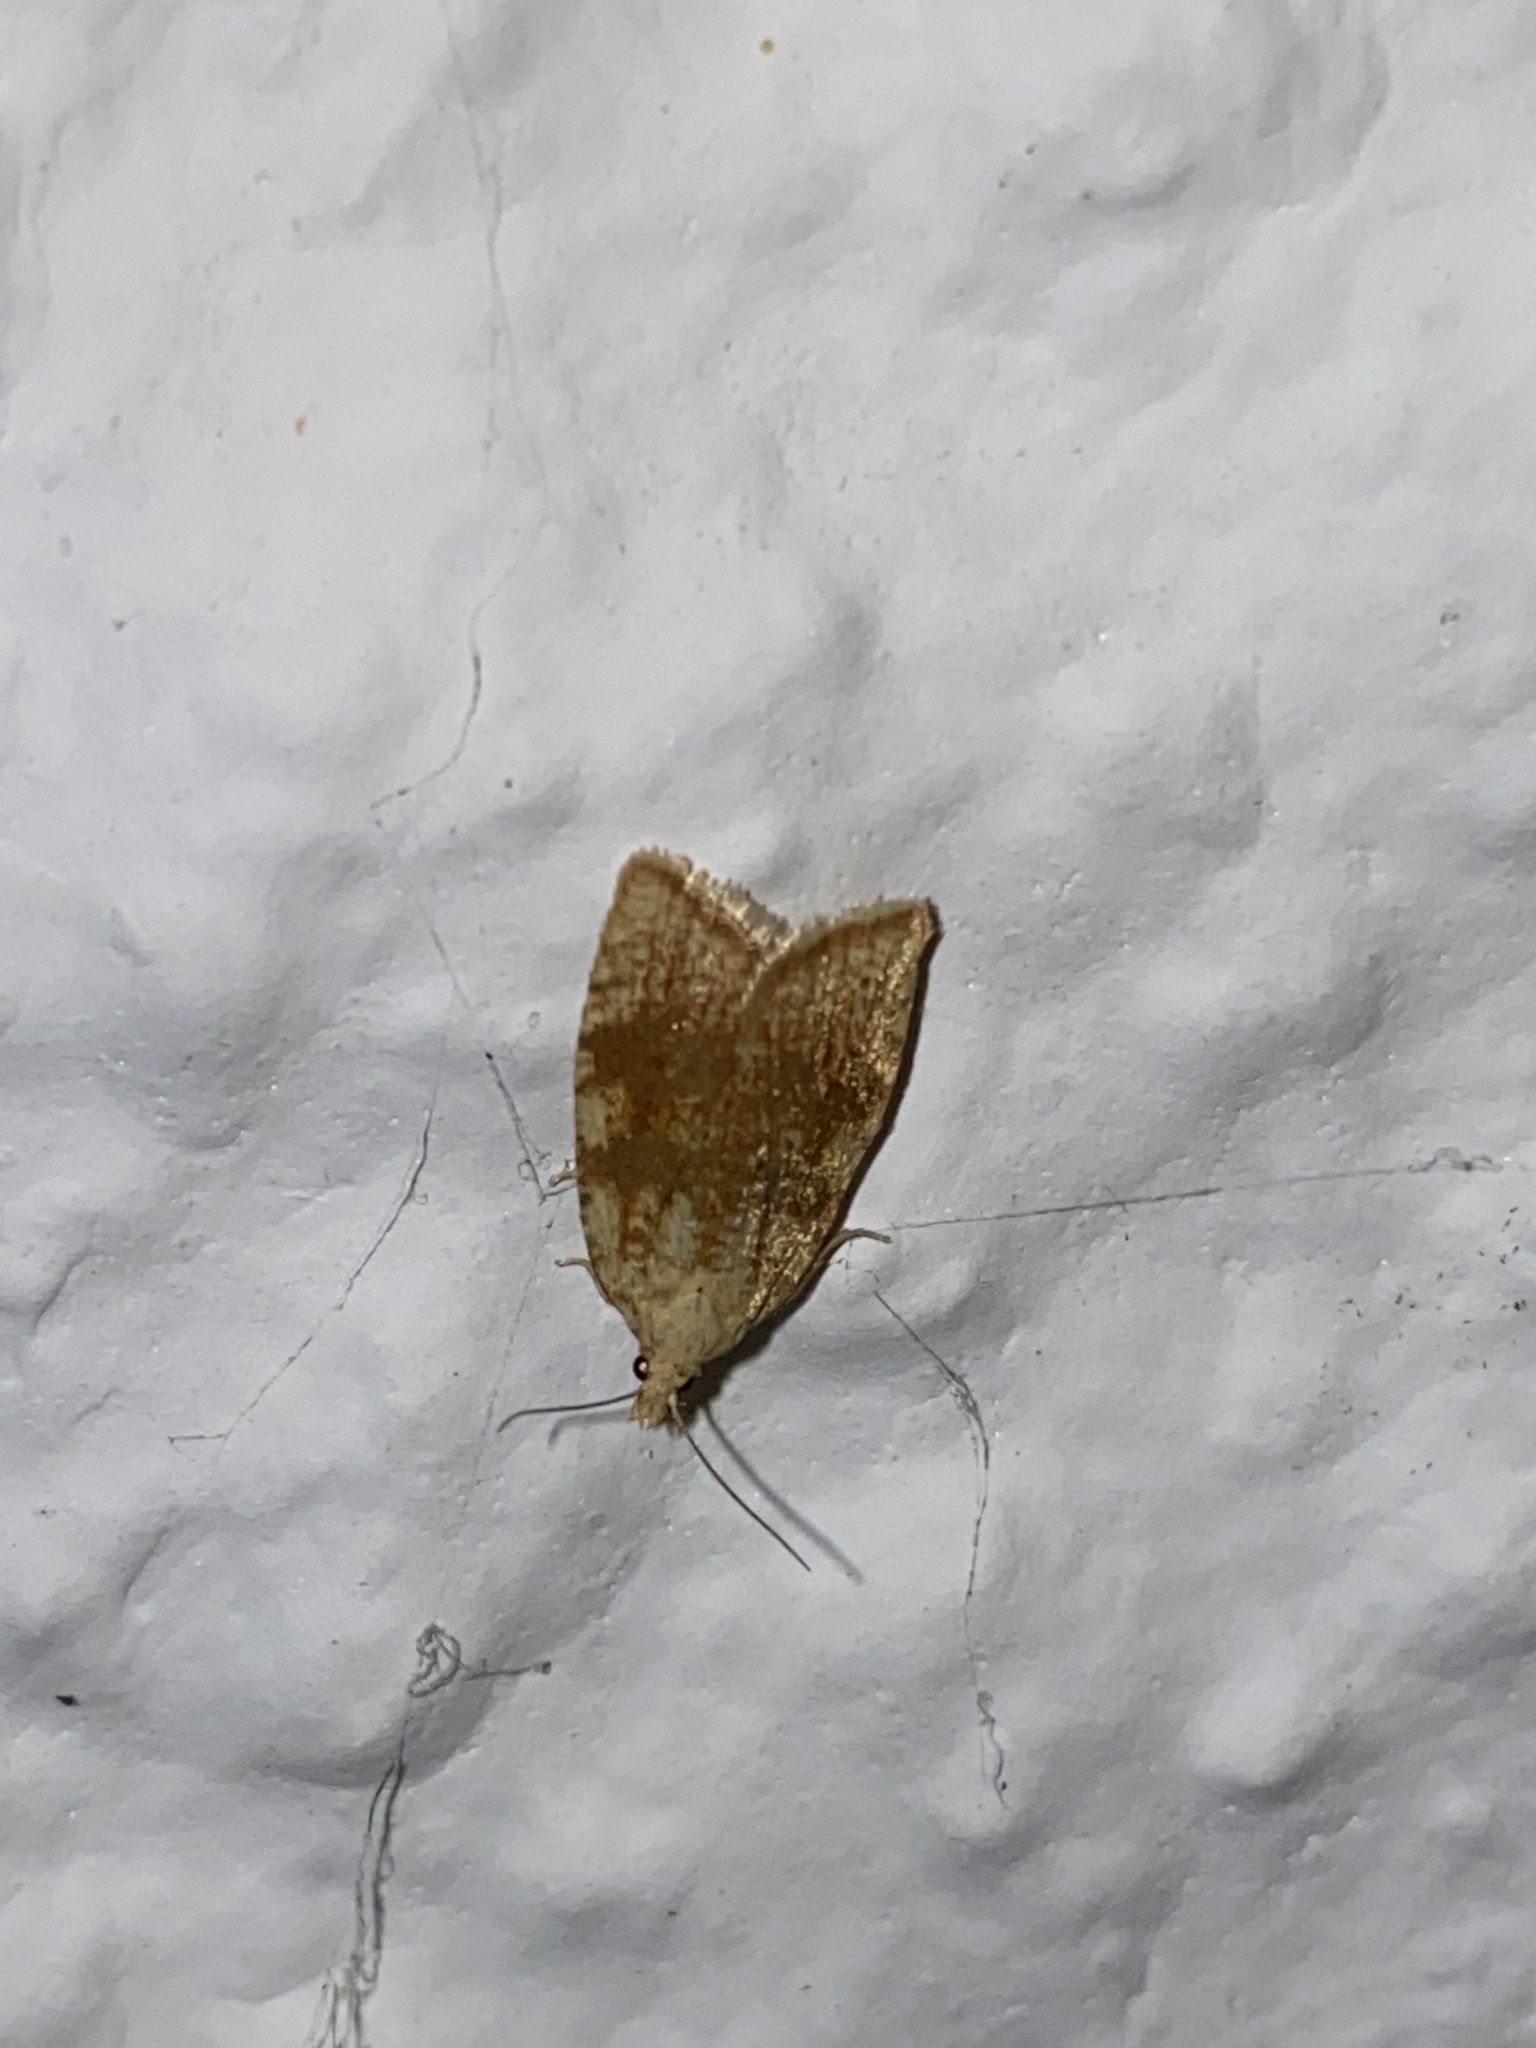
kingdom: Animalia
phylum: Arthropoda
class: Insecta
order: Lepidoptera
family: Tortricidae
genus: Aleimma
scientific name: Aleimma loeflingiana
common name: Yellow oak button
